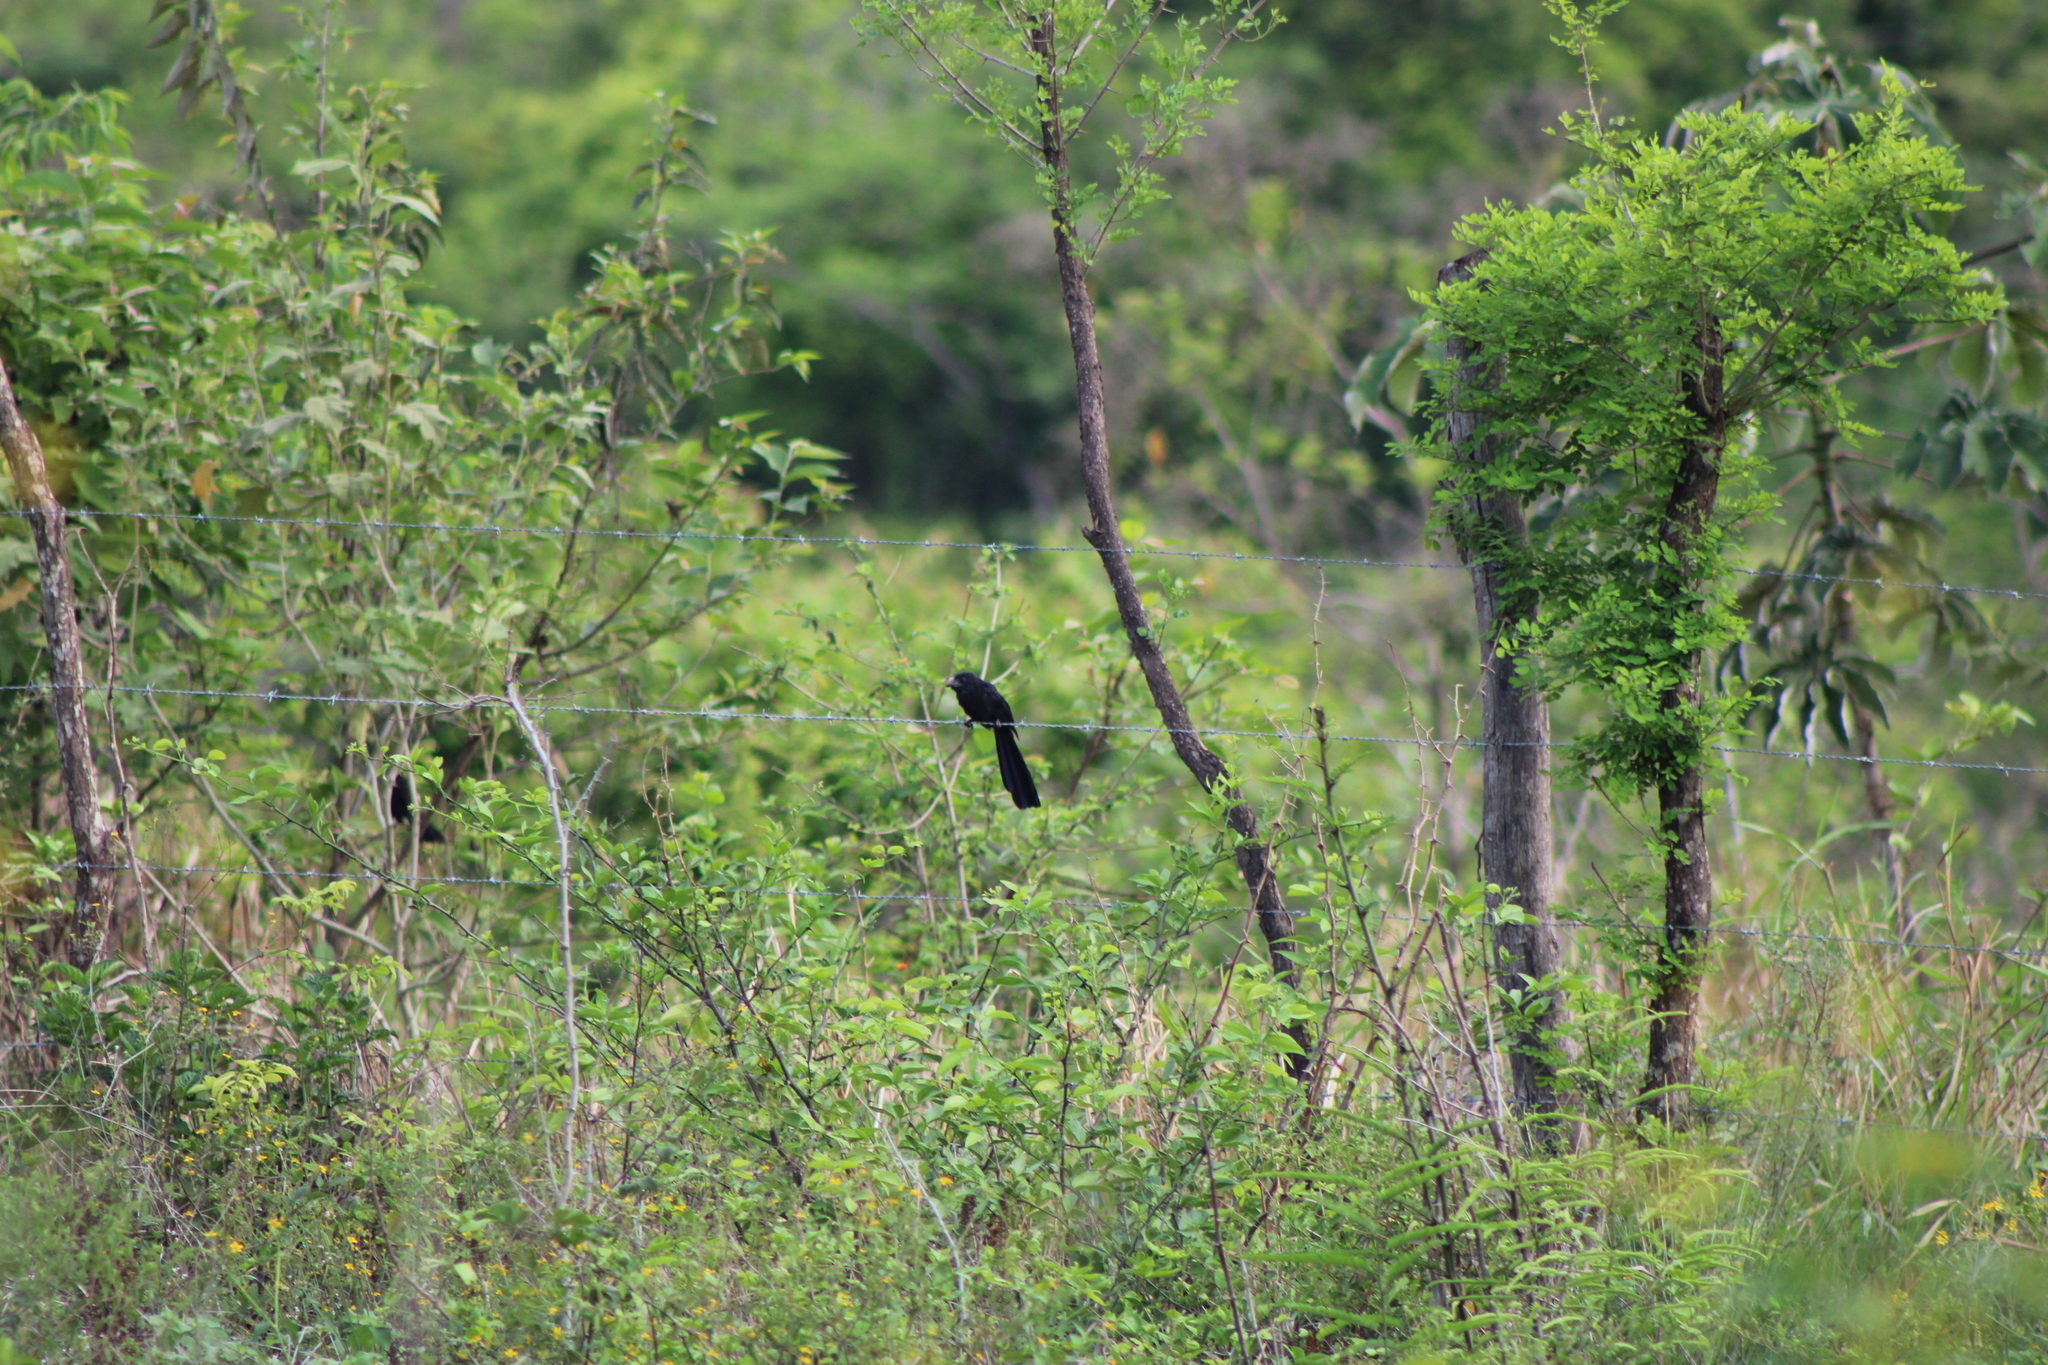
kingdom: Animalia
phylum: Chordata
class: Aves
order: Cuculiformes
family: Cuculidae
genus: Crotophaga
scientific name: Crotophaga sulcirostris
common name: Groove-billed ani
